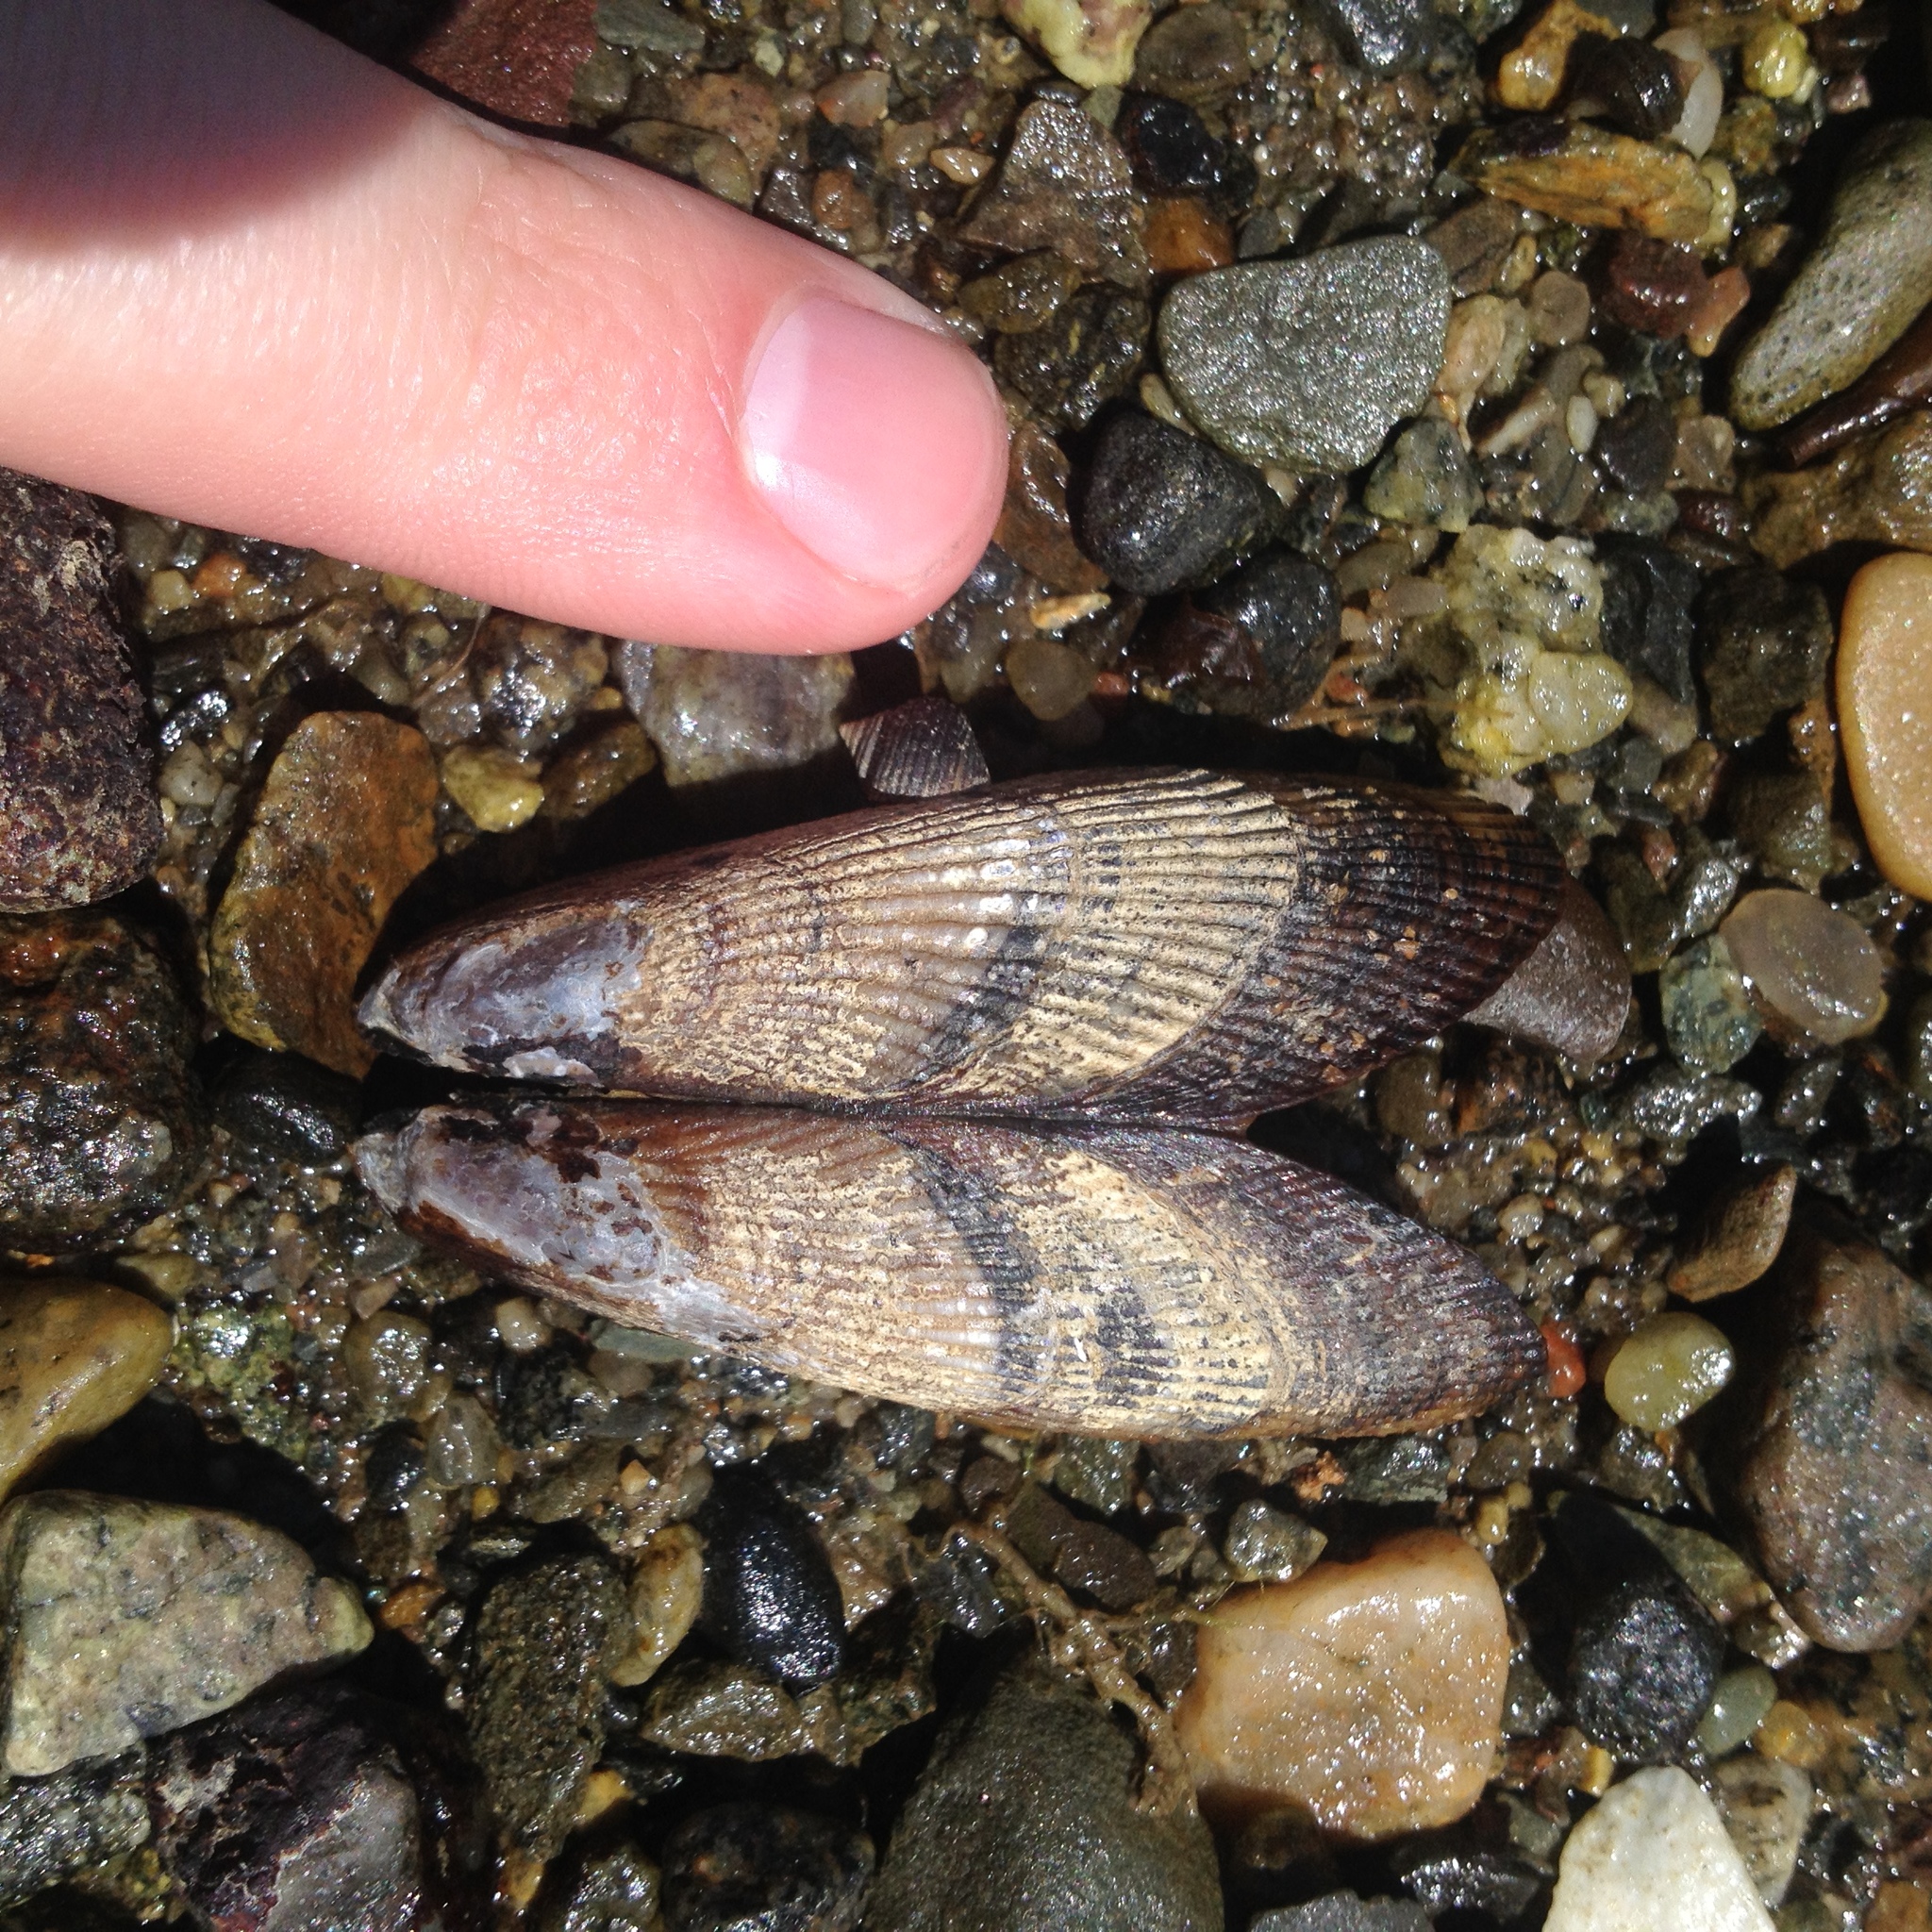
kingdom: Animalia
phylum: Mollusca
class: Bivalvia
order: Mytilida
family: Mytilidae
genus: Geukensia
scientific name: Geukensia demissa
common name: Ribbed mussel
